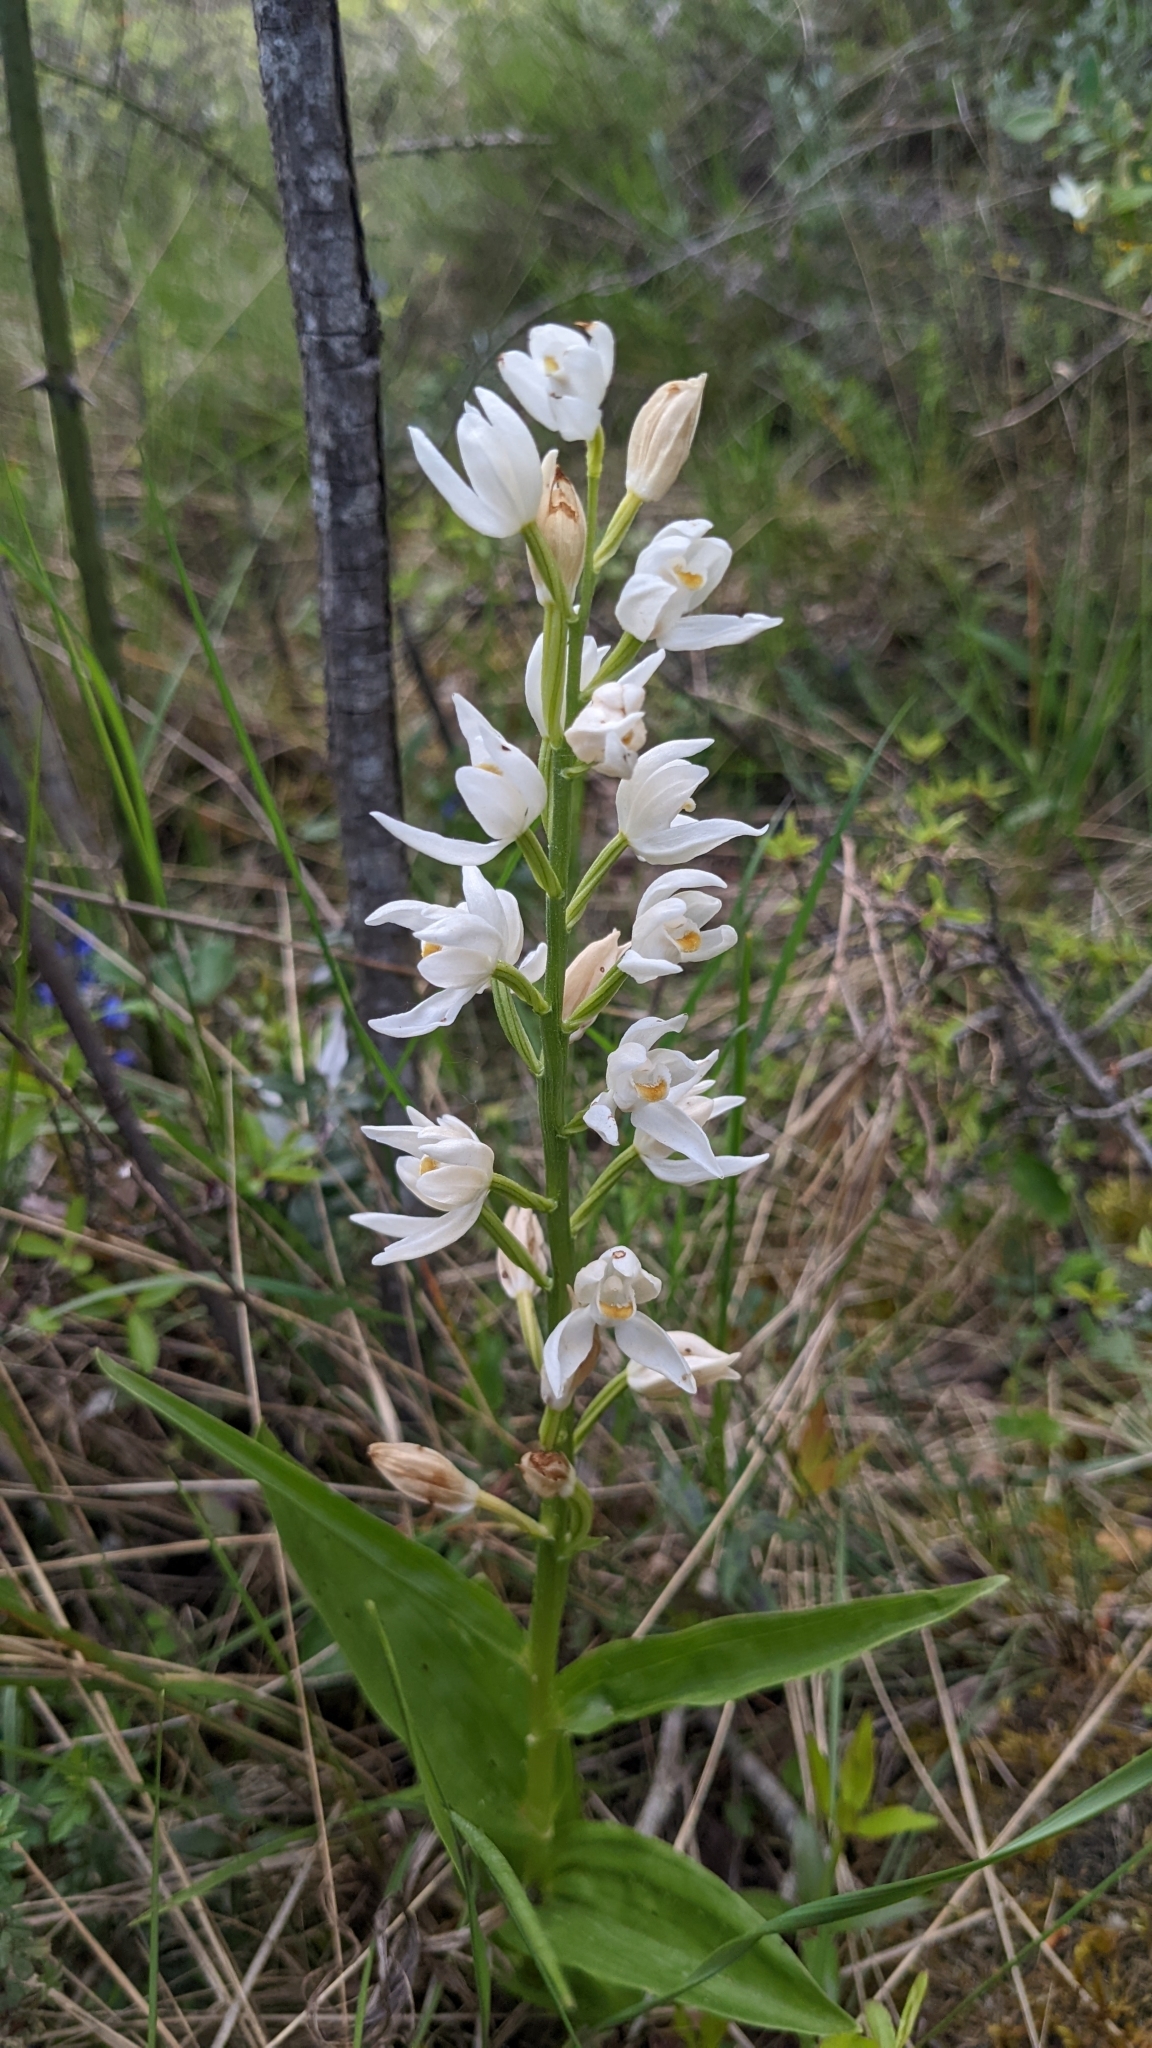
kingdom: Plantae
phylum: Tracheophyta
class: Liliopsida
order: Asparagales
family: Orchidaceae
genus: Cephalanthera
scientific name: Cephalanthera longifolia
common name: Narrow-leaved helleborine
